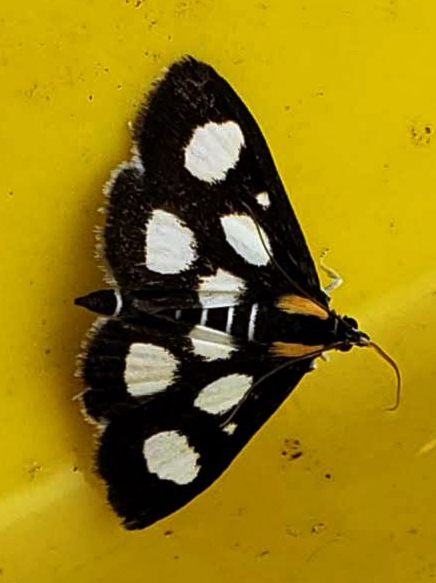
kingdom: Animalia
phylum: Arthropoda
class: Insecta
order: Lepidoptera
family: Crambidae
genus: Anania
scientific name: Anania funebris
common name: White-spotted sable moth
